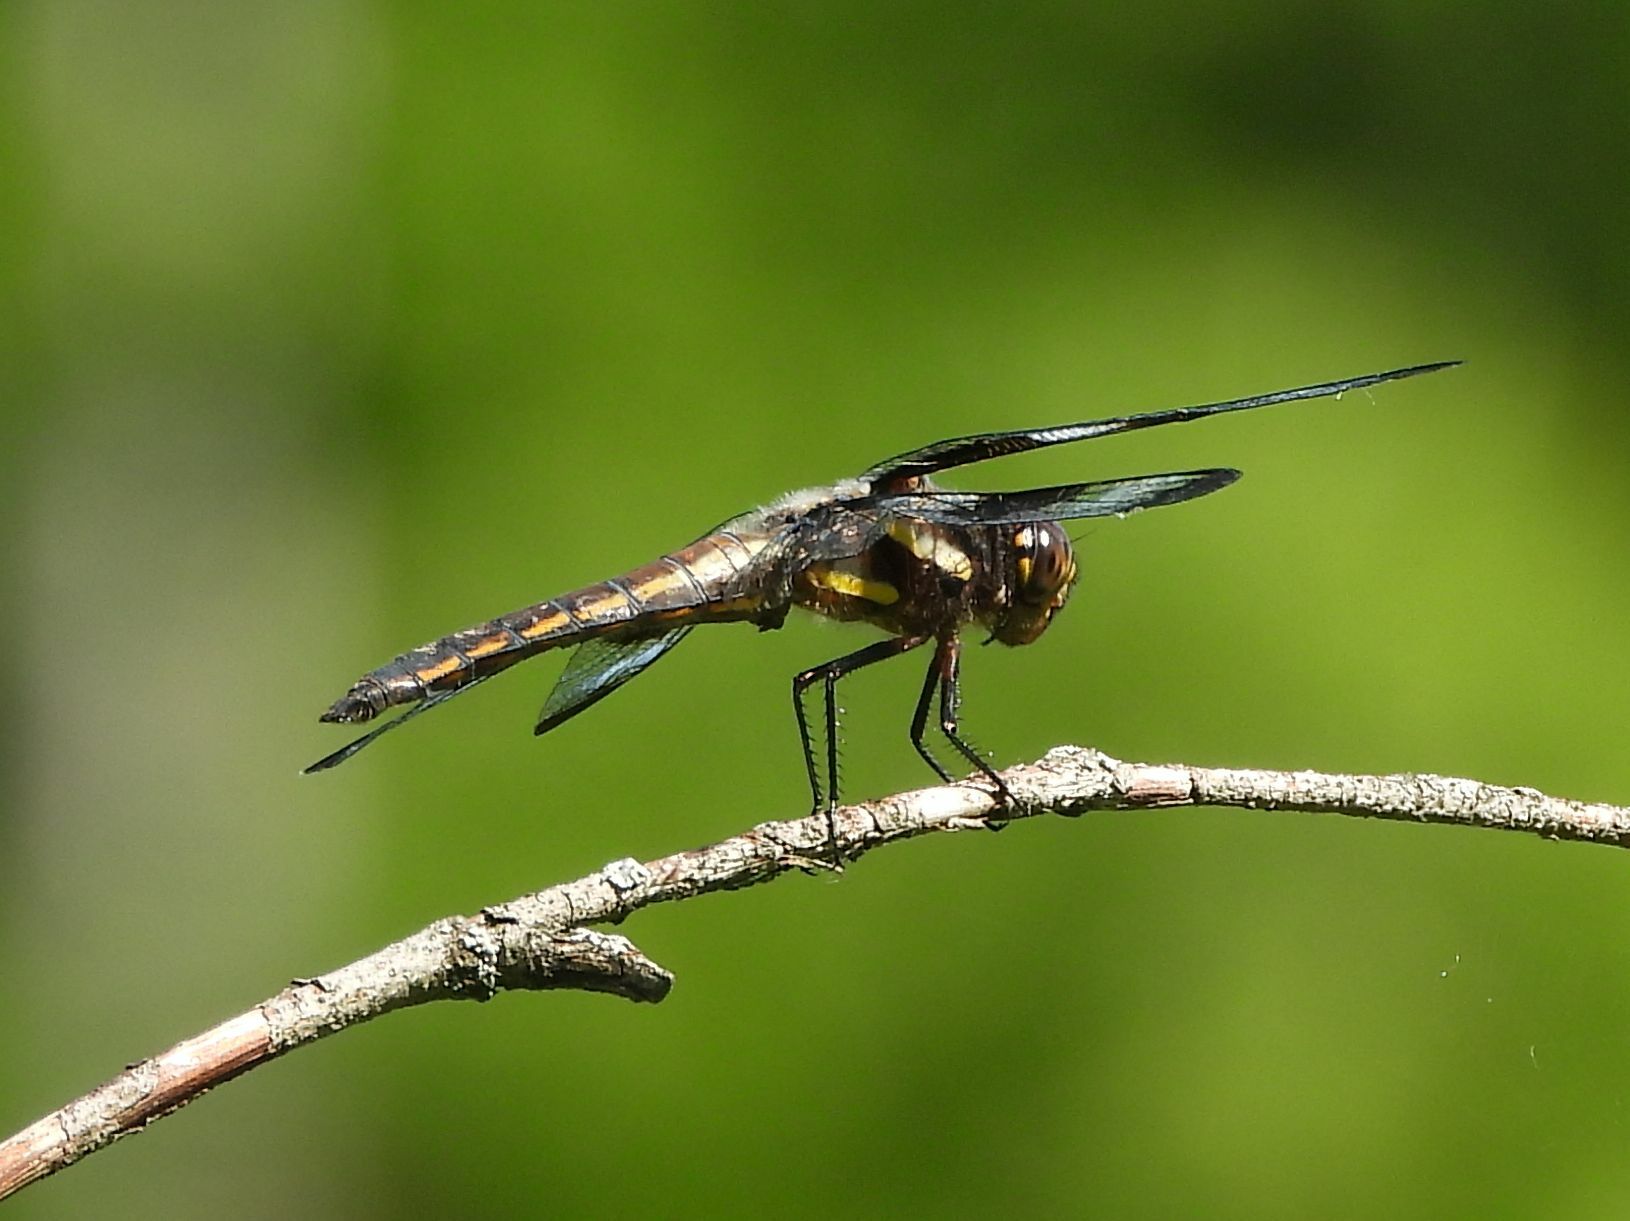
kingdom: Animalia
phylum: Arthropoda
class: Insecta
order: Odonata
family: Libellulidae
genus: Libellula
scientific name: Libellula pulchella
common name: Twelve-spotted skimmer
